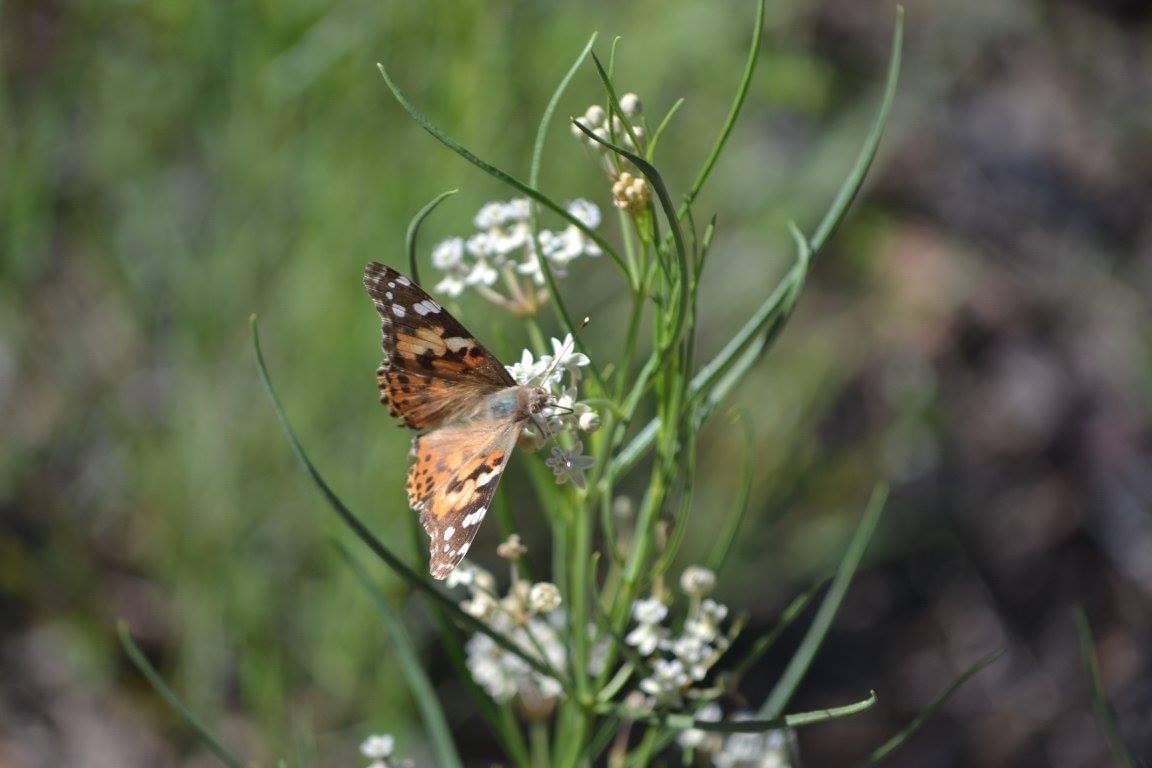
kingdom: Animalia
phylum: Arthropoda
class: Insecta
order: Lepidoptera
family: Nymphalidae
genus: Vanessa
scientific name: Vanessa cardui
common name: Painted lady
